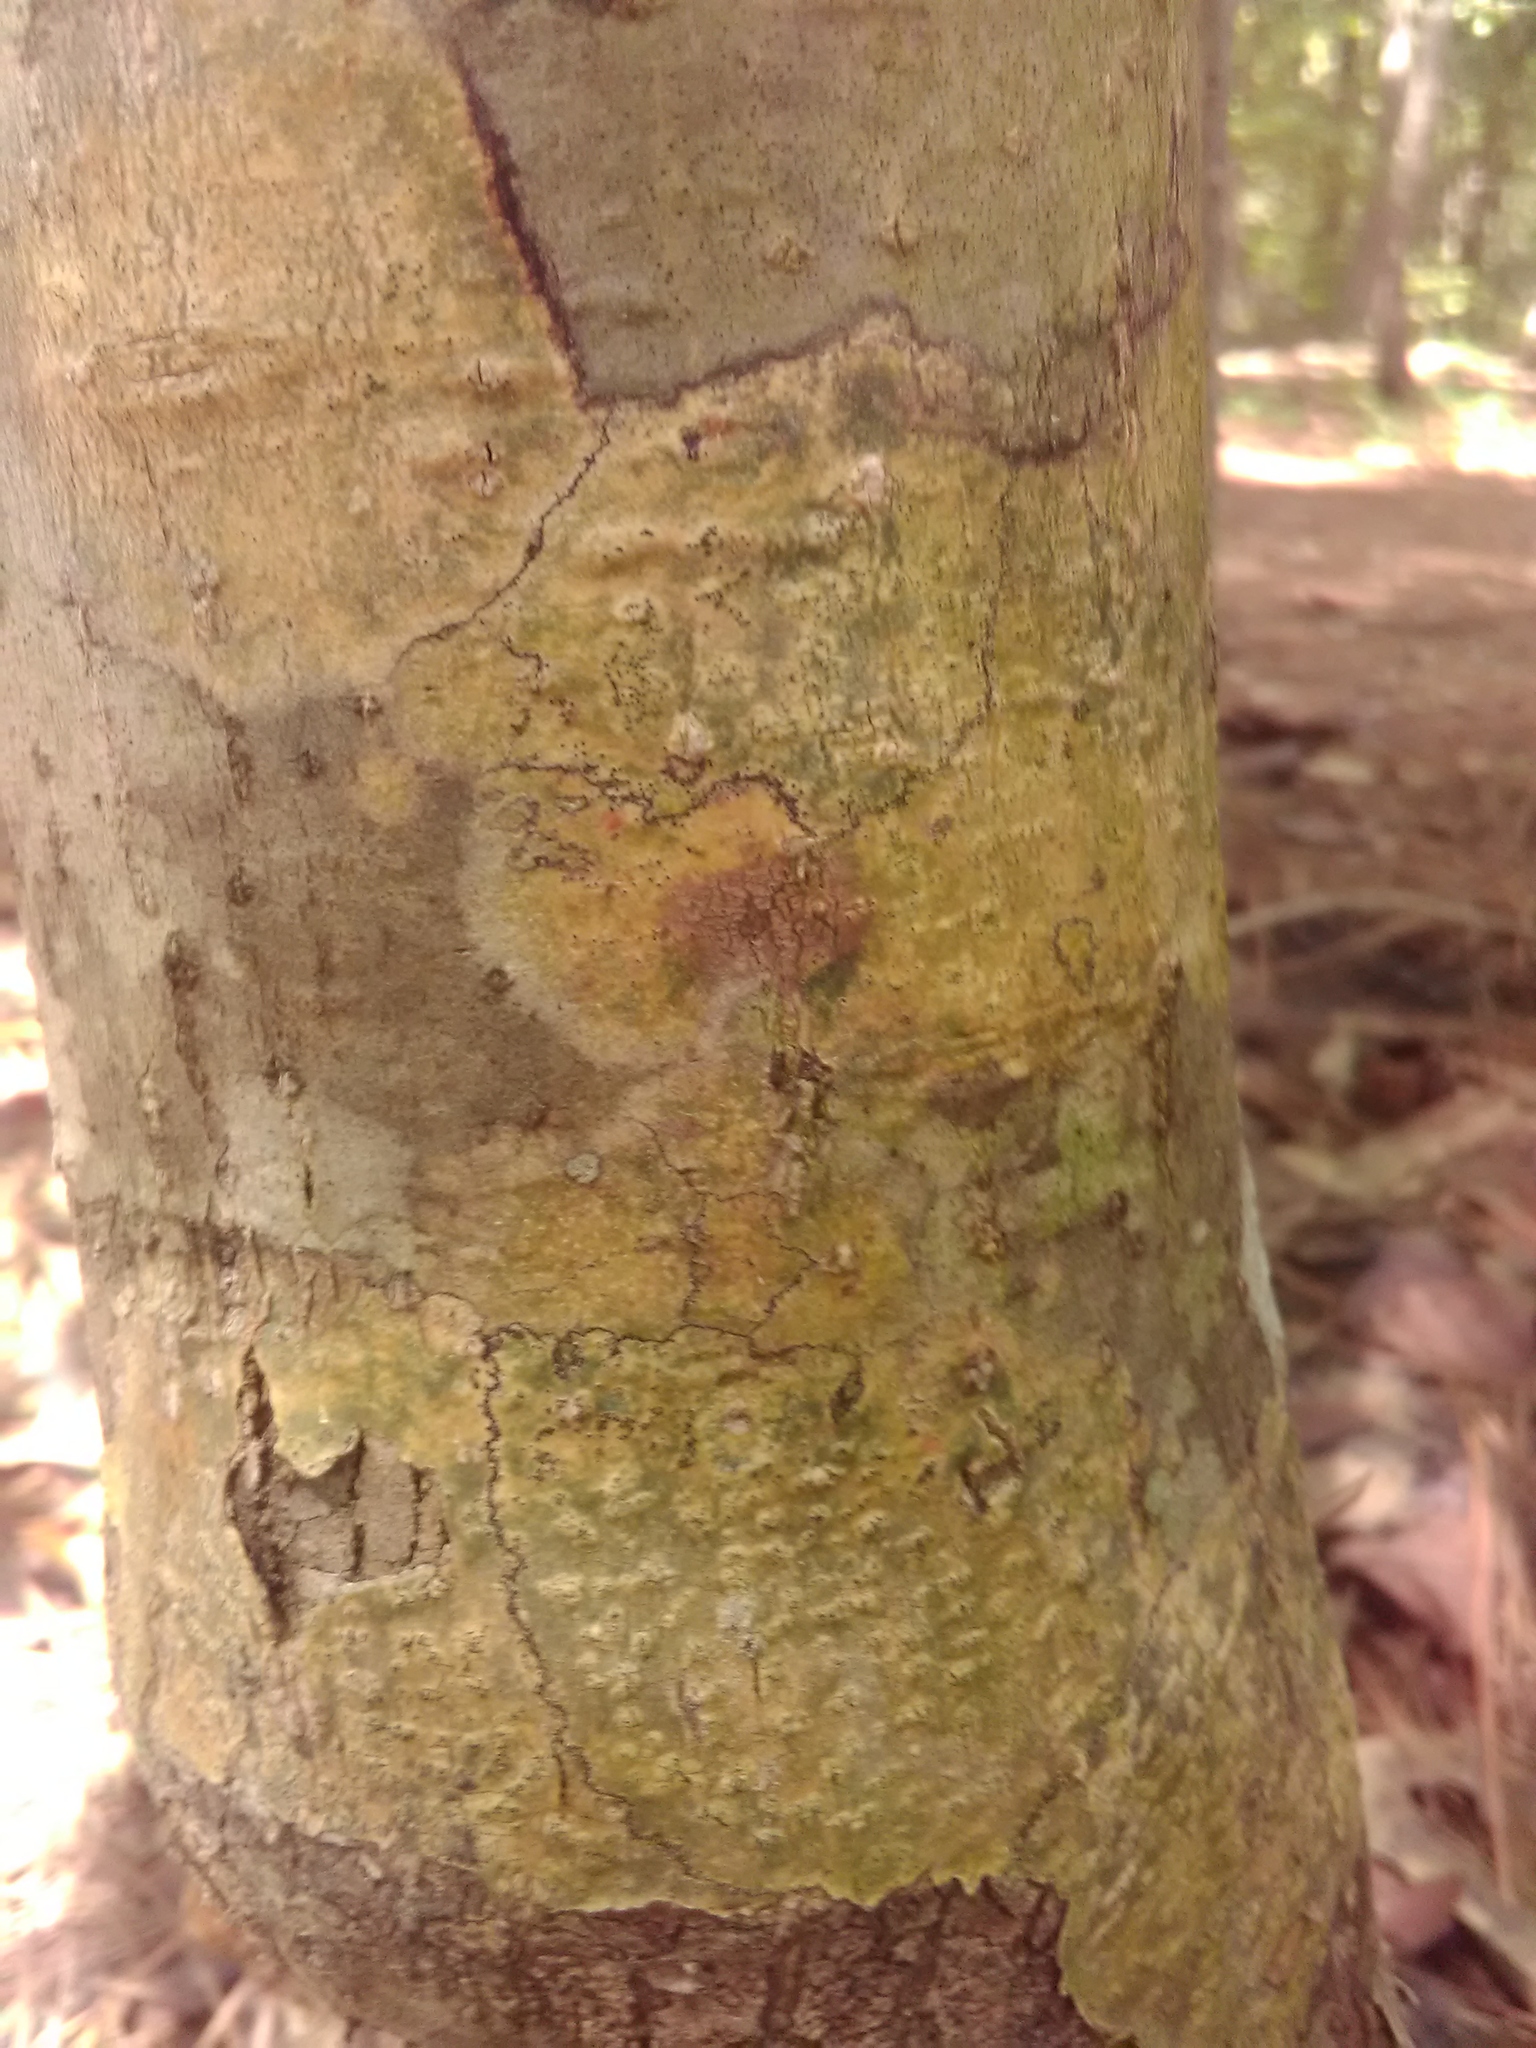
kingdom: Fungi
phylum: Ascomycota
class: Dothideomycetes
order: Trypetheliales
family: Trypetheliaceae
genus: Viridothelium
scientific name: Viridothelium virens
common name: Speckled blister lichen
